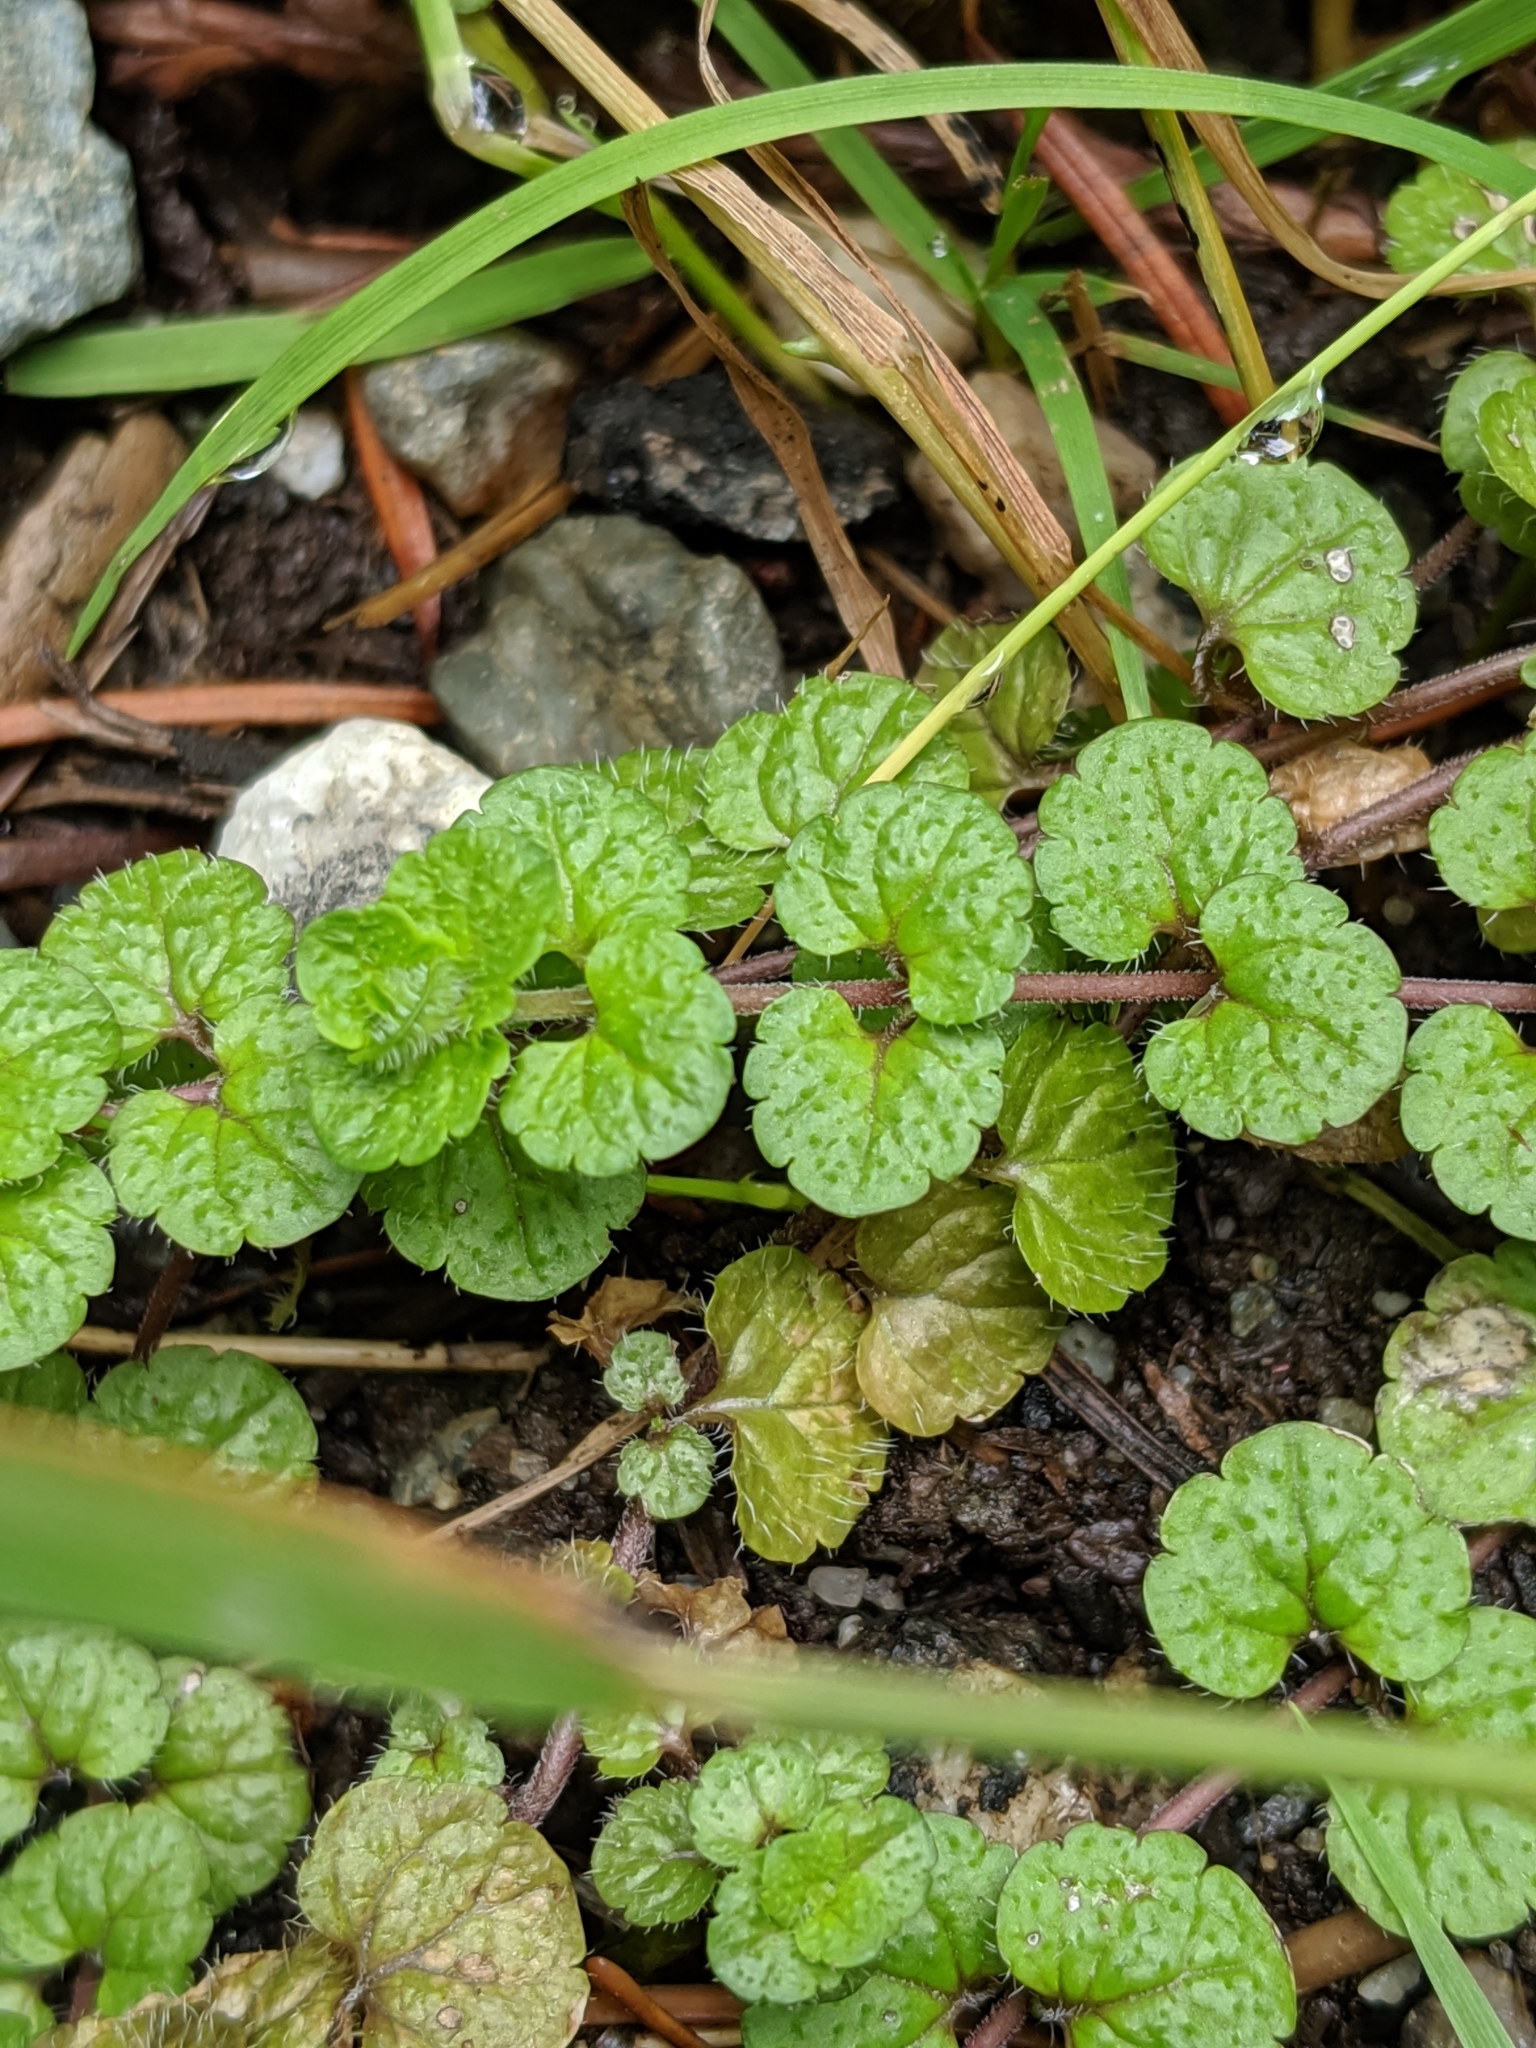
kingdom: Plantae
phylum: Tracheophyta
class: Magnoliopsida
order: Lamiales
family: Plantaginaceae
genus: Veronica
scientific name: Veronica filiformis
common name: Slender speedwell
